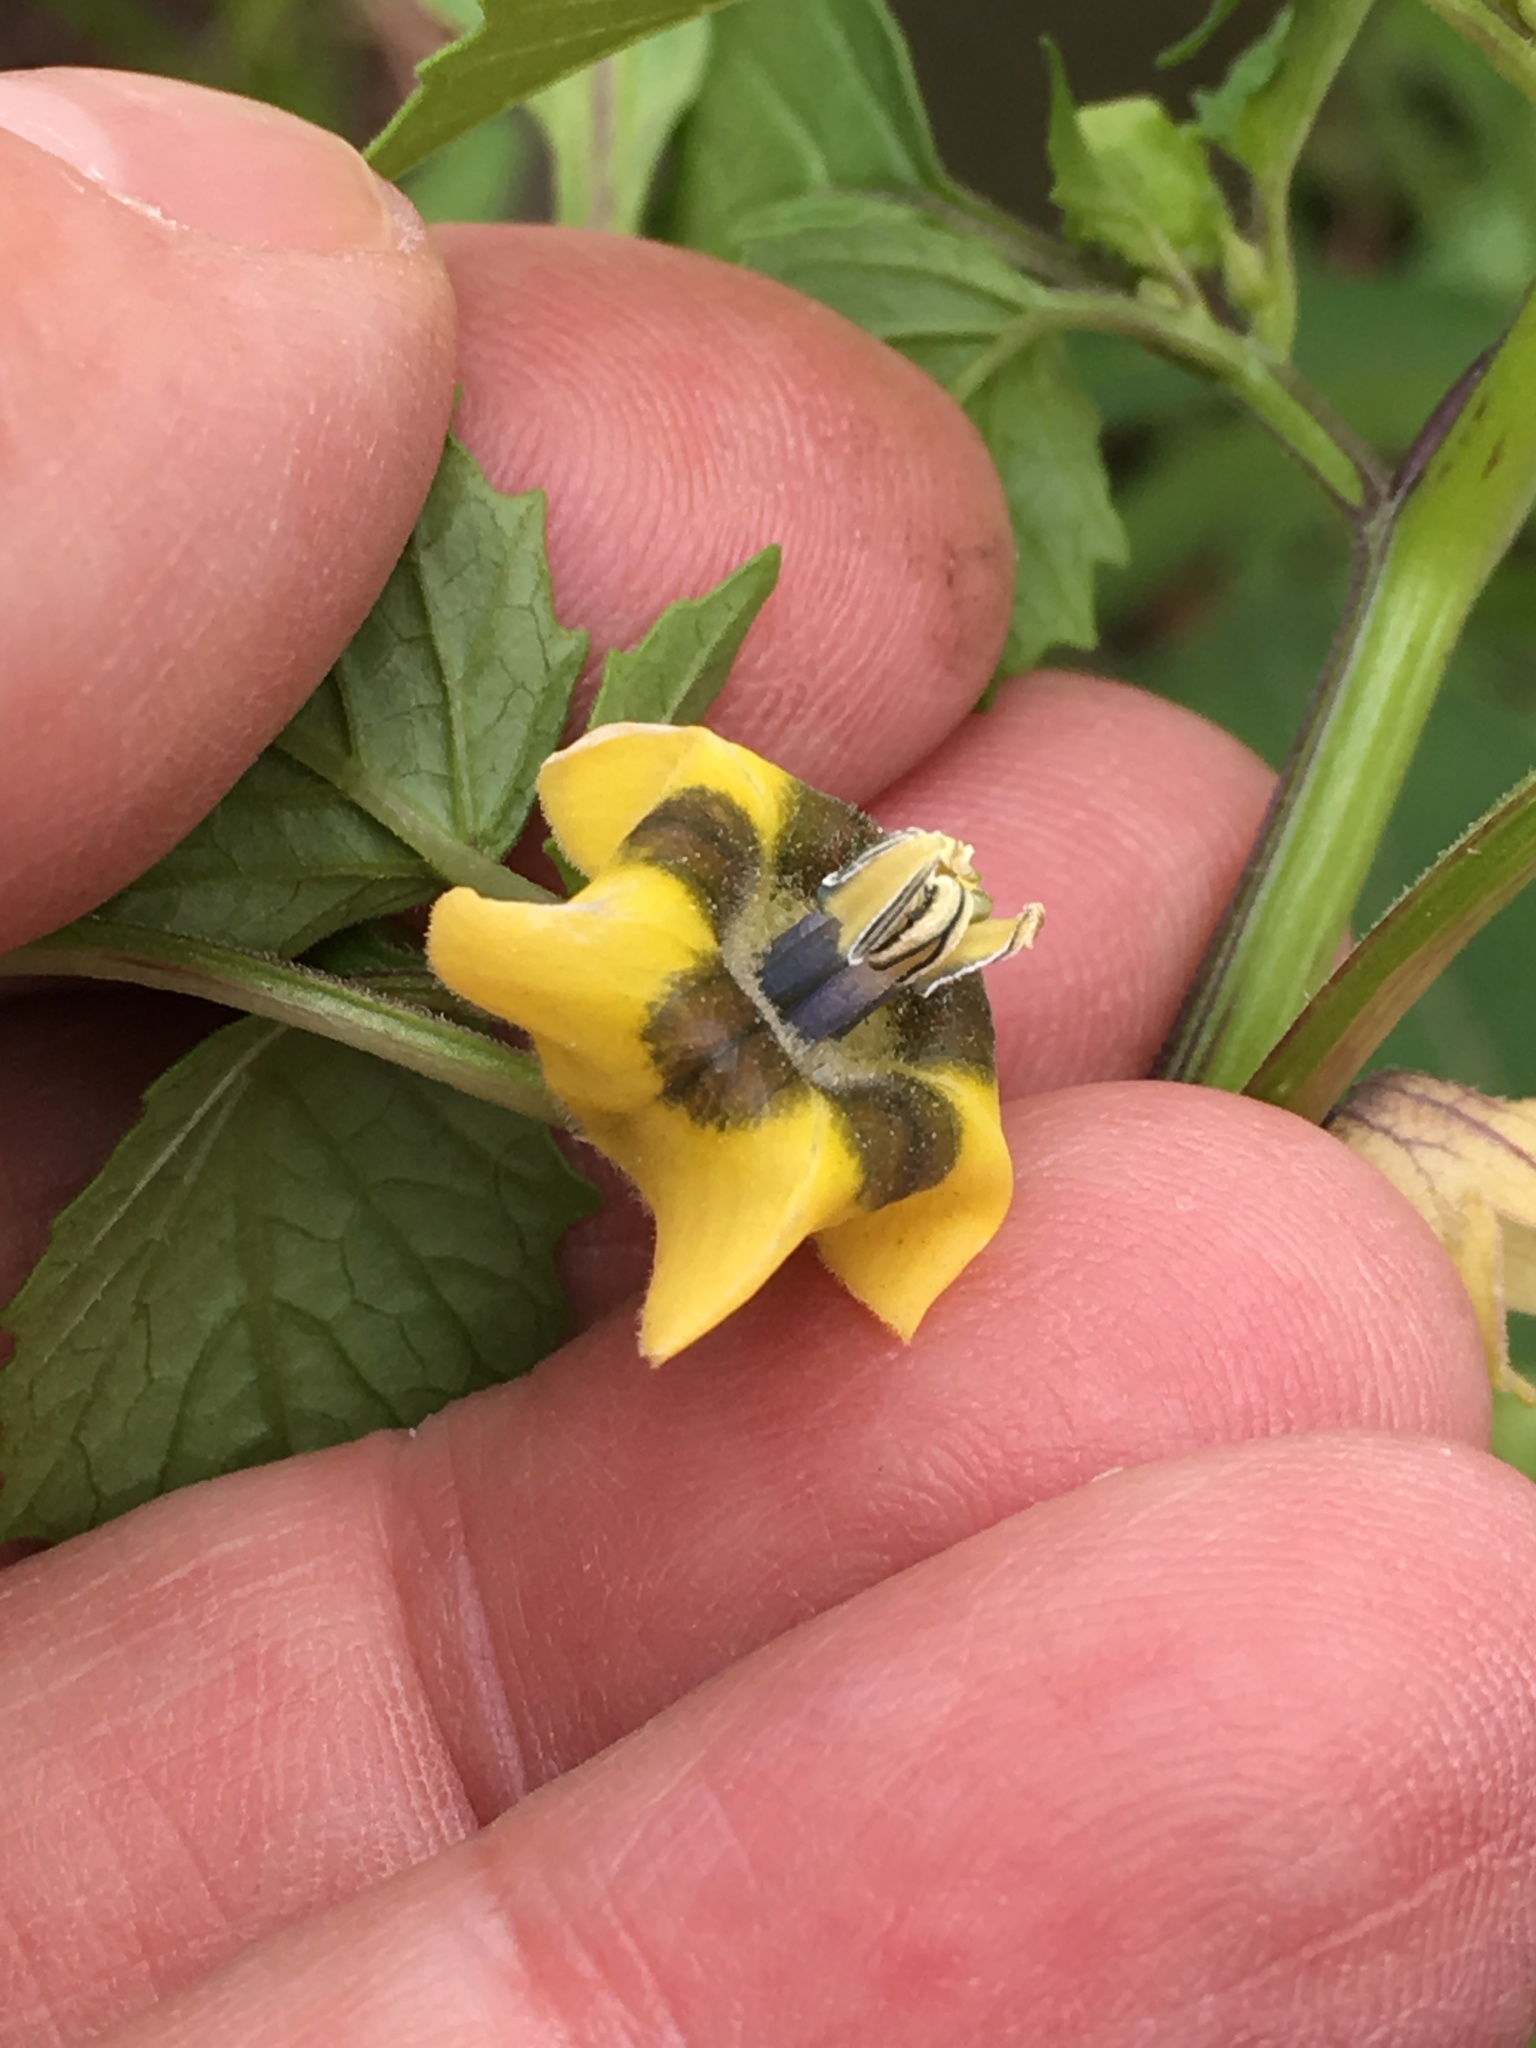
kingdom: Plantae
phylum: Tracheophyta
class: Magnoliopsida
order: Solanales
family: Solanaceae
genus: Physalis
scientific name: Physalis philadelphica
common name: Husk-tomato
